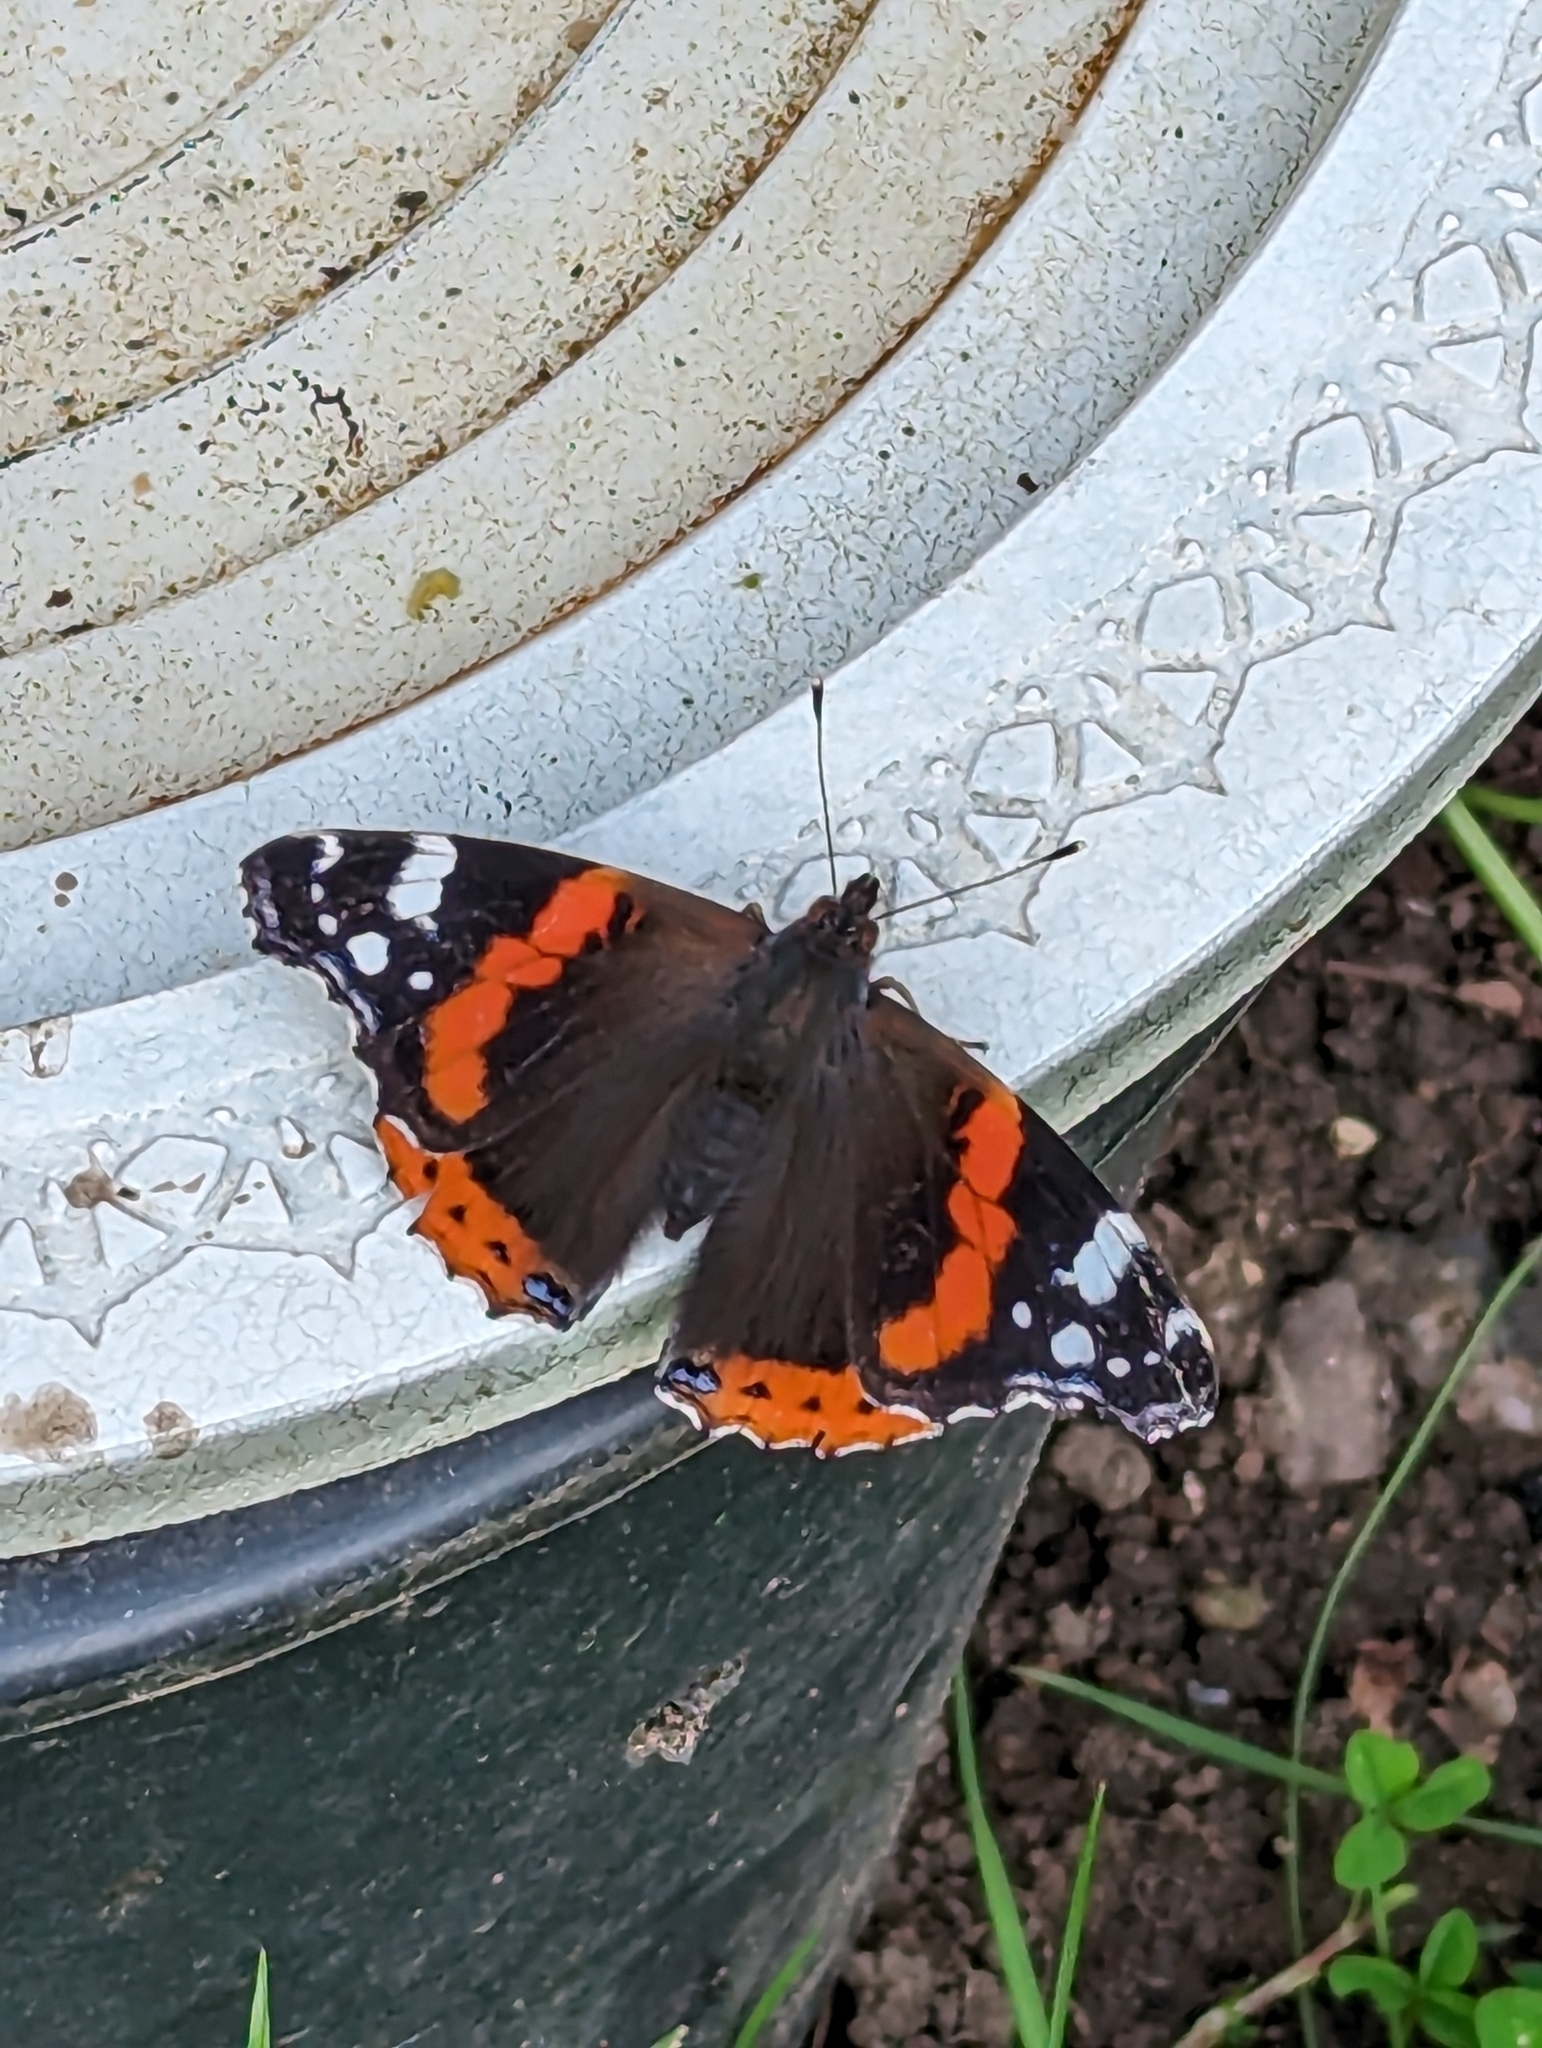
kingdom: Animalia
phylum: Arthropoda
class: Insecta
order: Lepidoptera
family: Nymphalidae
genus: Vanessa
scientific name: Vanessa atalanta
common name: Red admiral
